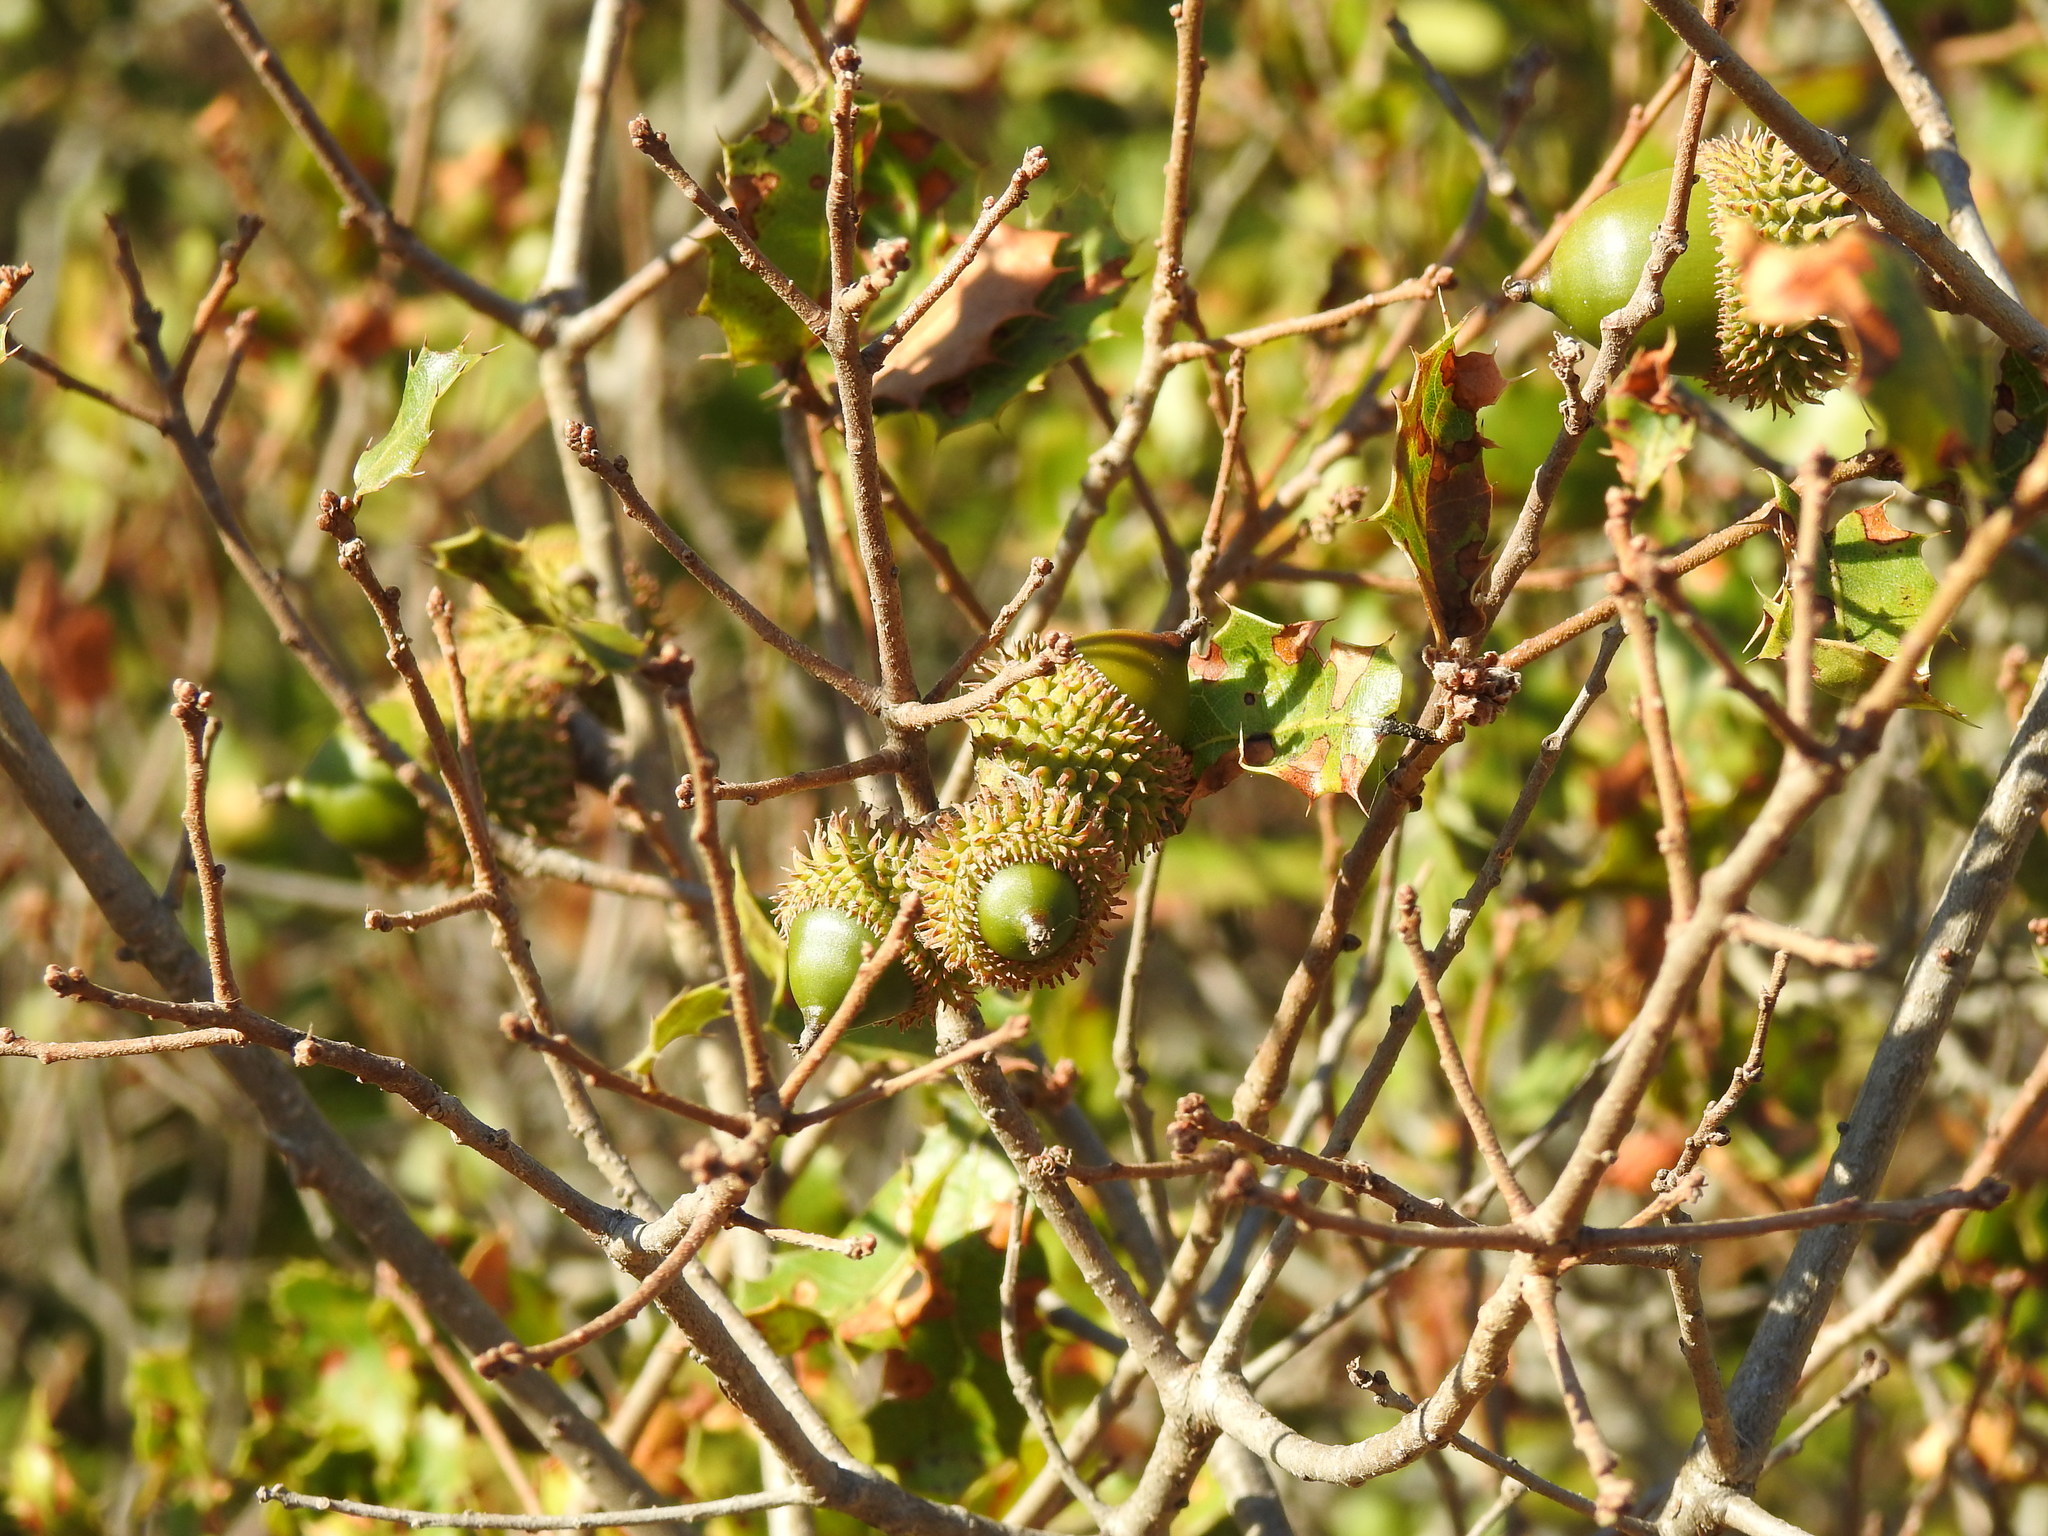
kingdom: Plantae
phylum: Tracheophyta
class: Magnoliopsida
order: Fagales
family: Fagaceae
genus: Quercus
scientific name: Quercus coccifera
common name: Kermes oak
